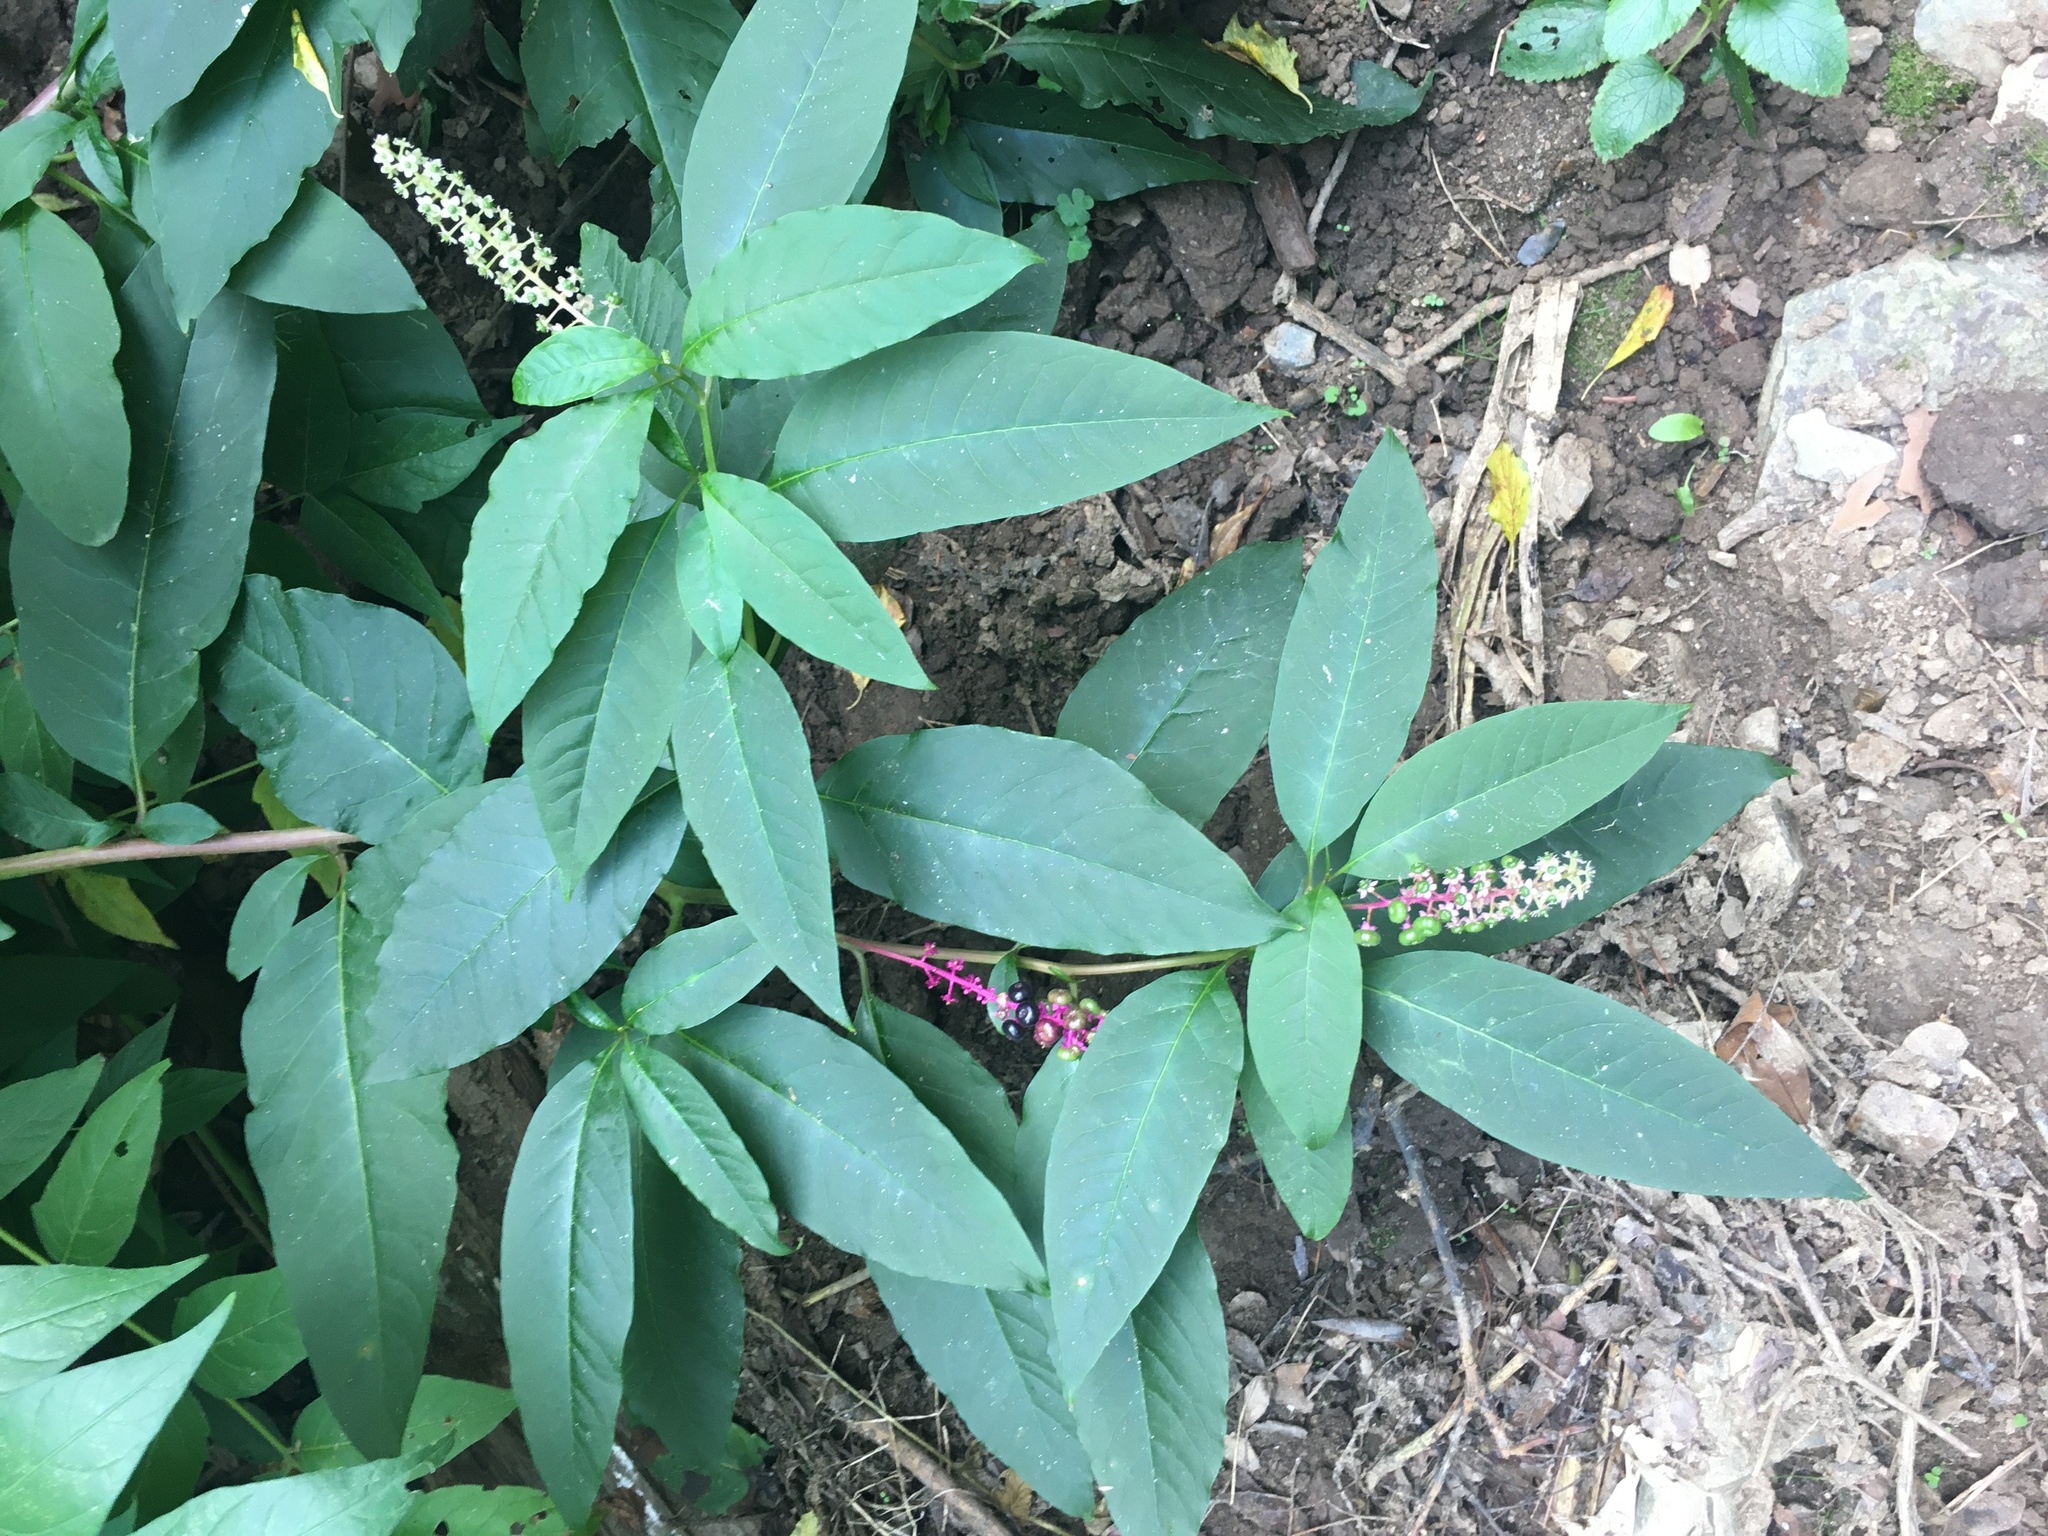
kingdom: Plantae
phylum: Tracheophyta
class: Magnoliopsida
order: Caryophyllales
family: Phytolaccaceae
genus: Phytolacca
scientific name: Phytolacca americana
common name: American pokeweed
